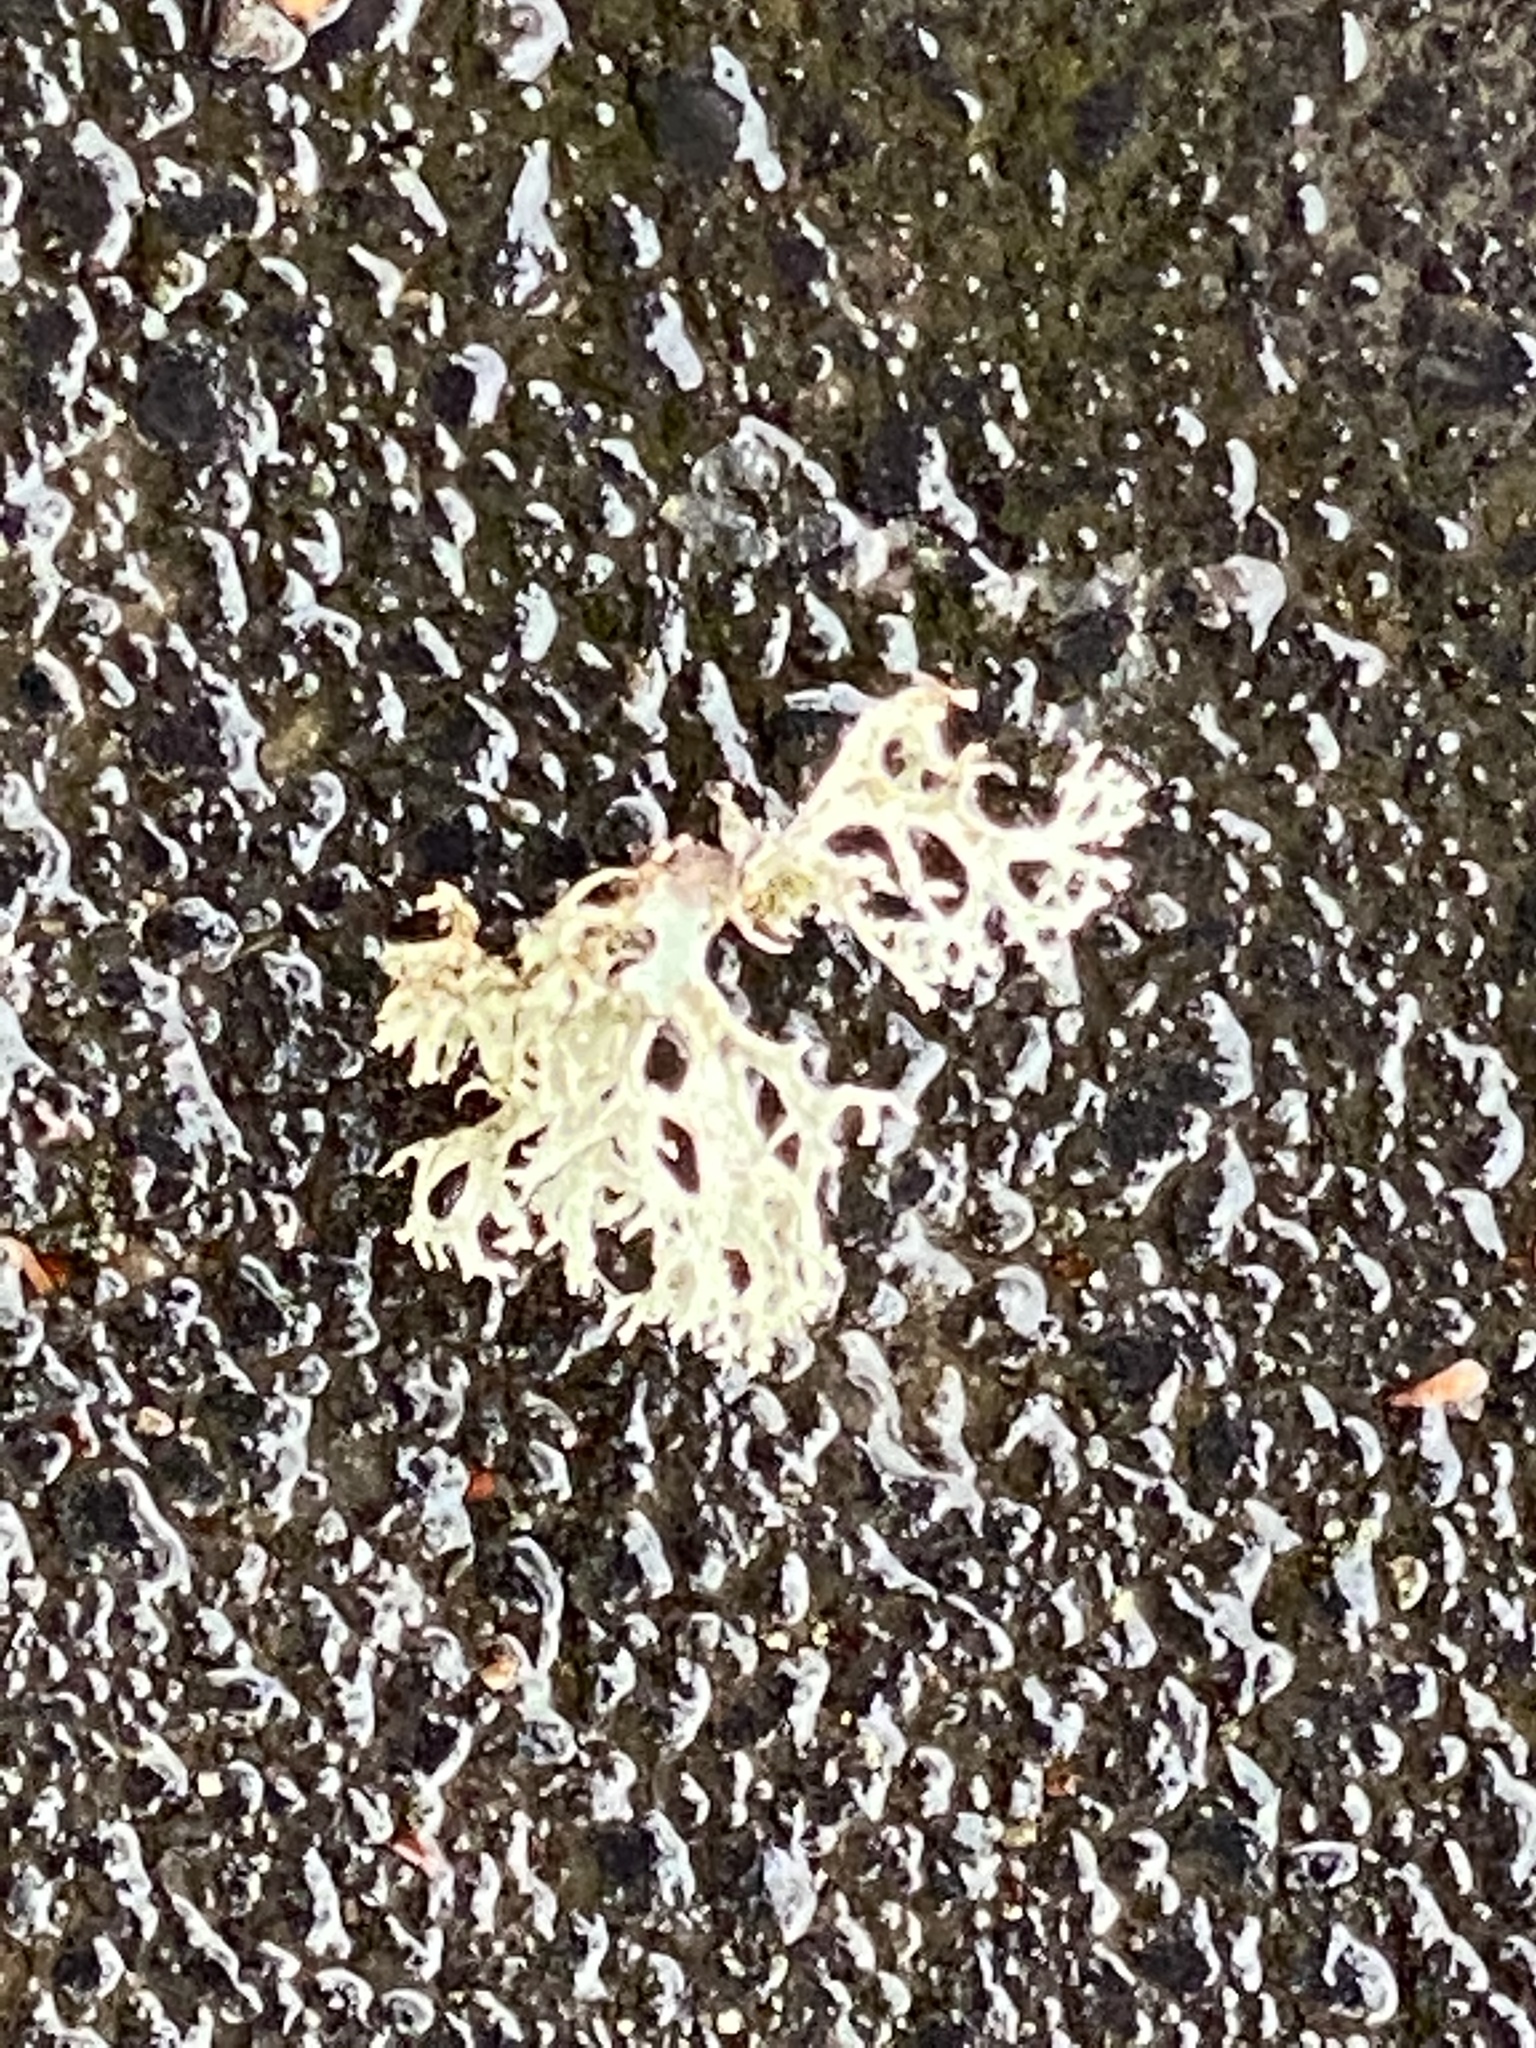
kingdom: Fungi
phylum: Ascomycota
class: Lecanoromycetes
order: Lecanorales
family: Parmeliaceae
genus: Evernia
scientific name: Evernia prunastri
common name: Oak moss
